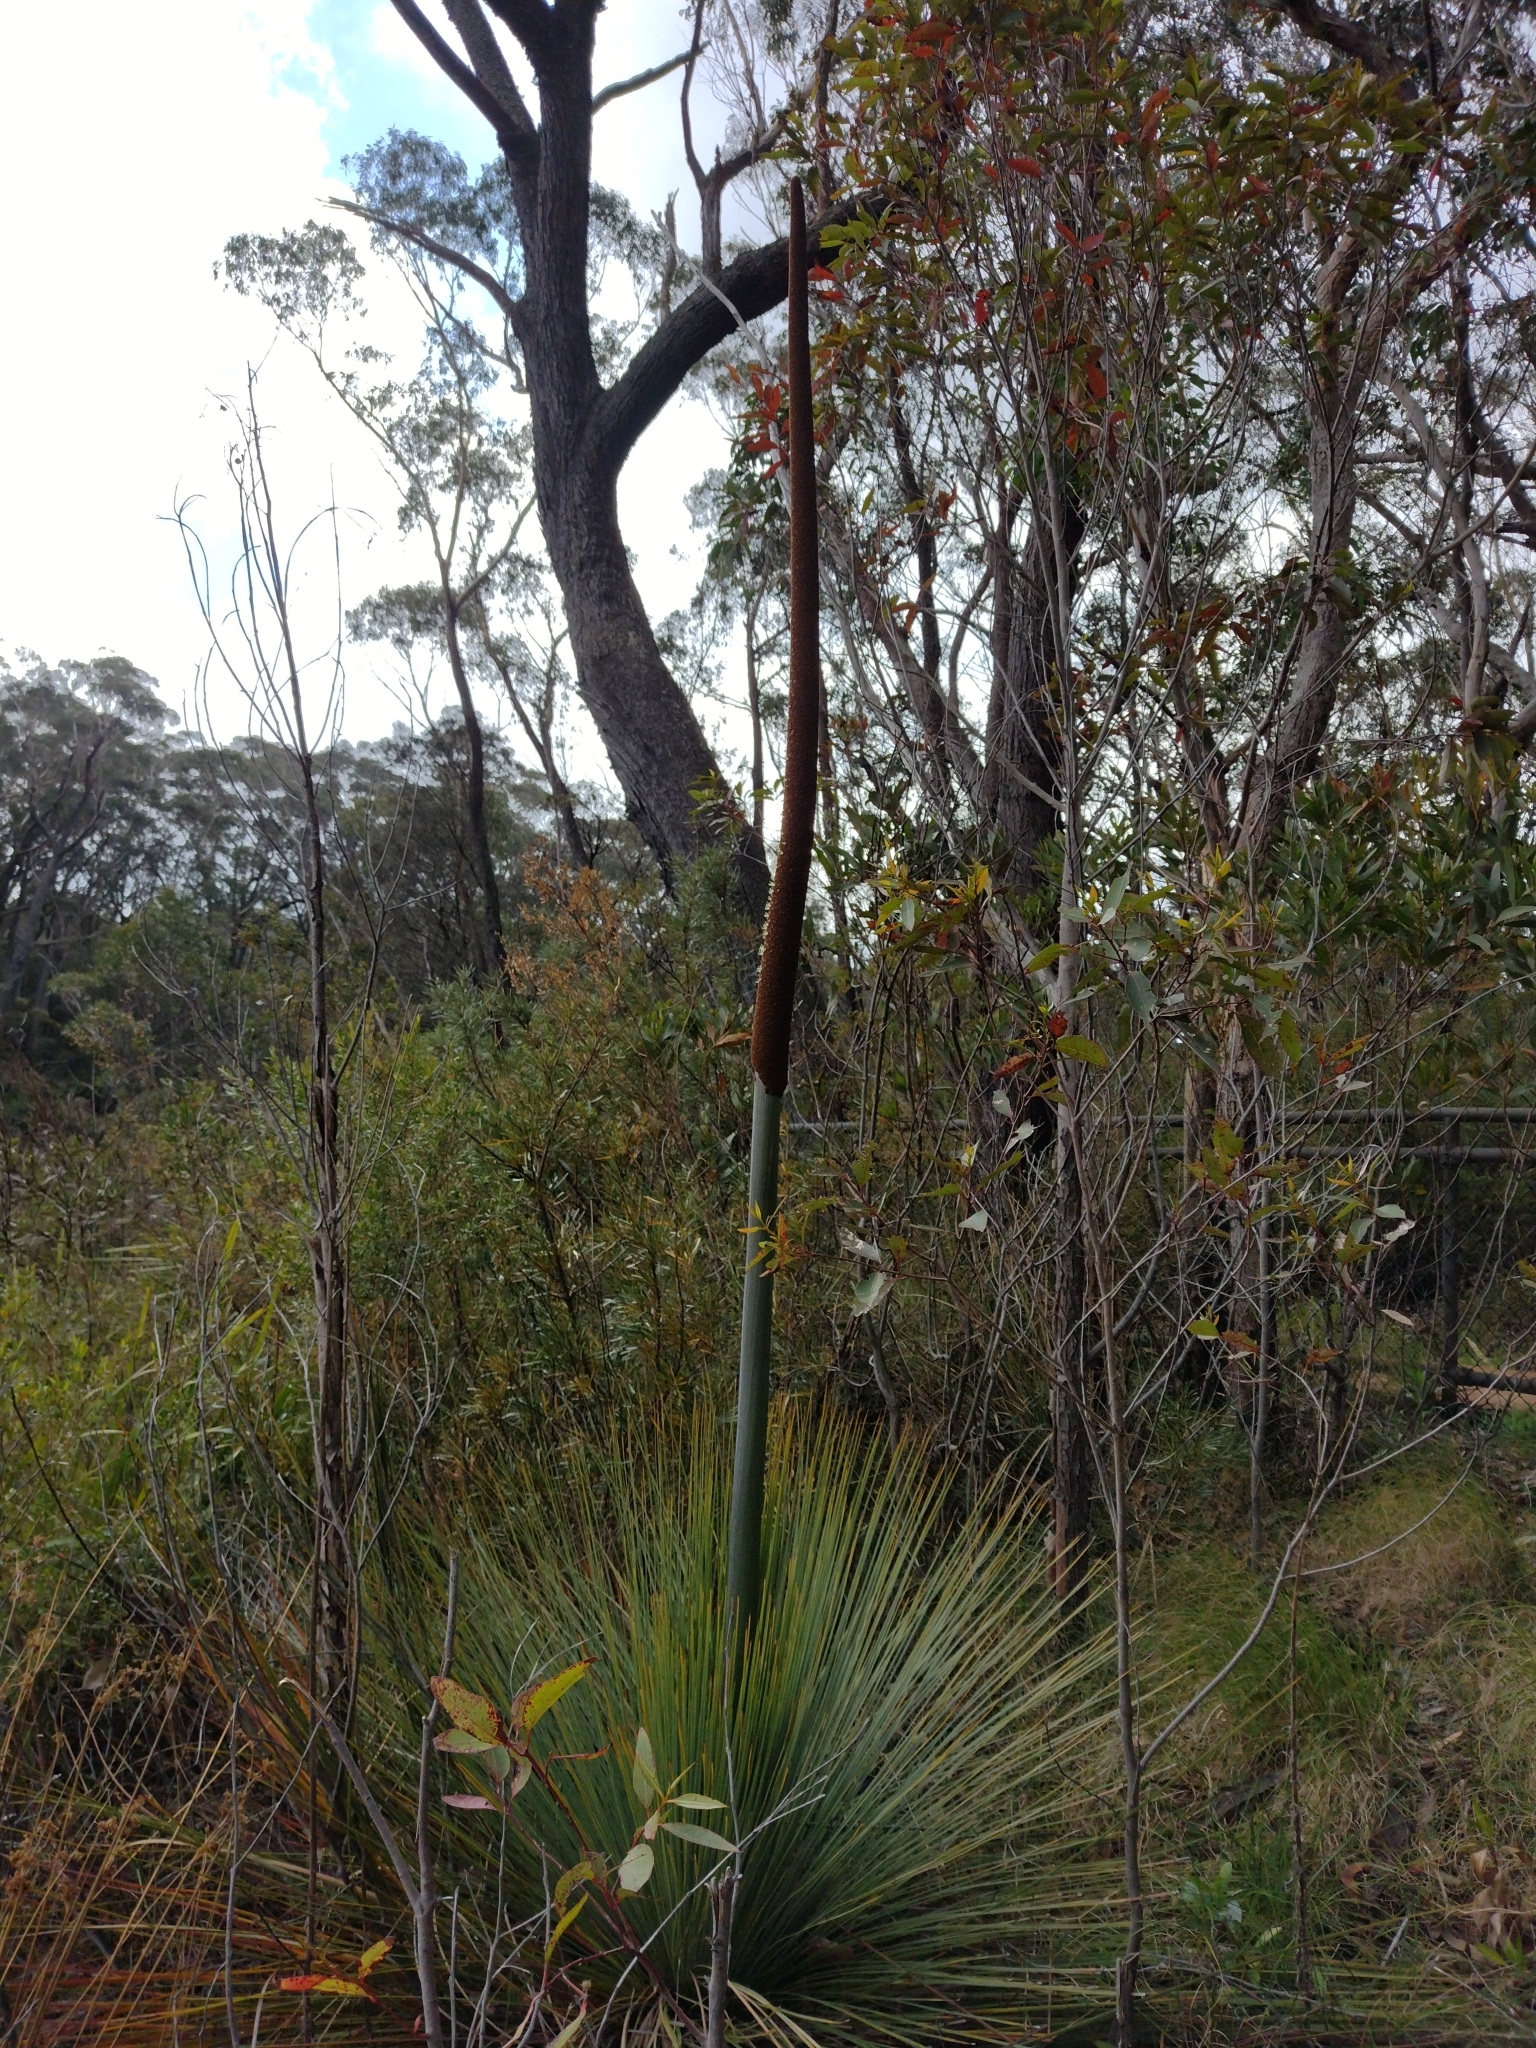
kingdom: Plantae
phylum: Tracheophyta
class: Liliopsida
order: Asparagales
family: Asphodelaceae
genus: Xanthorrhoea
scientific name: Xanthorrhoea resinosa
